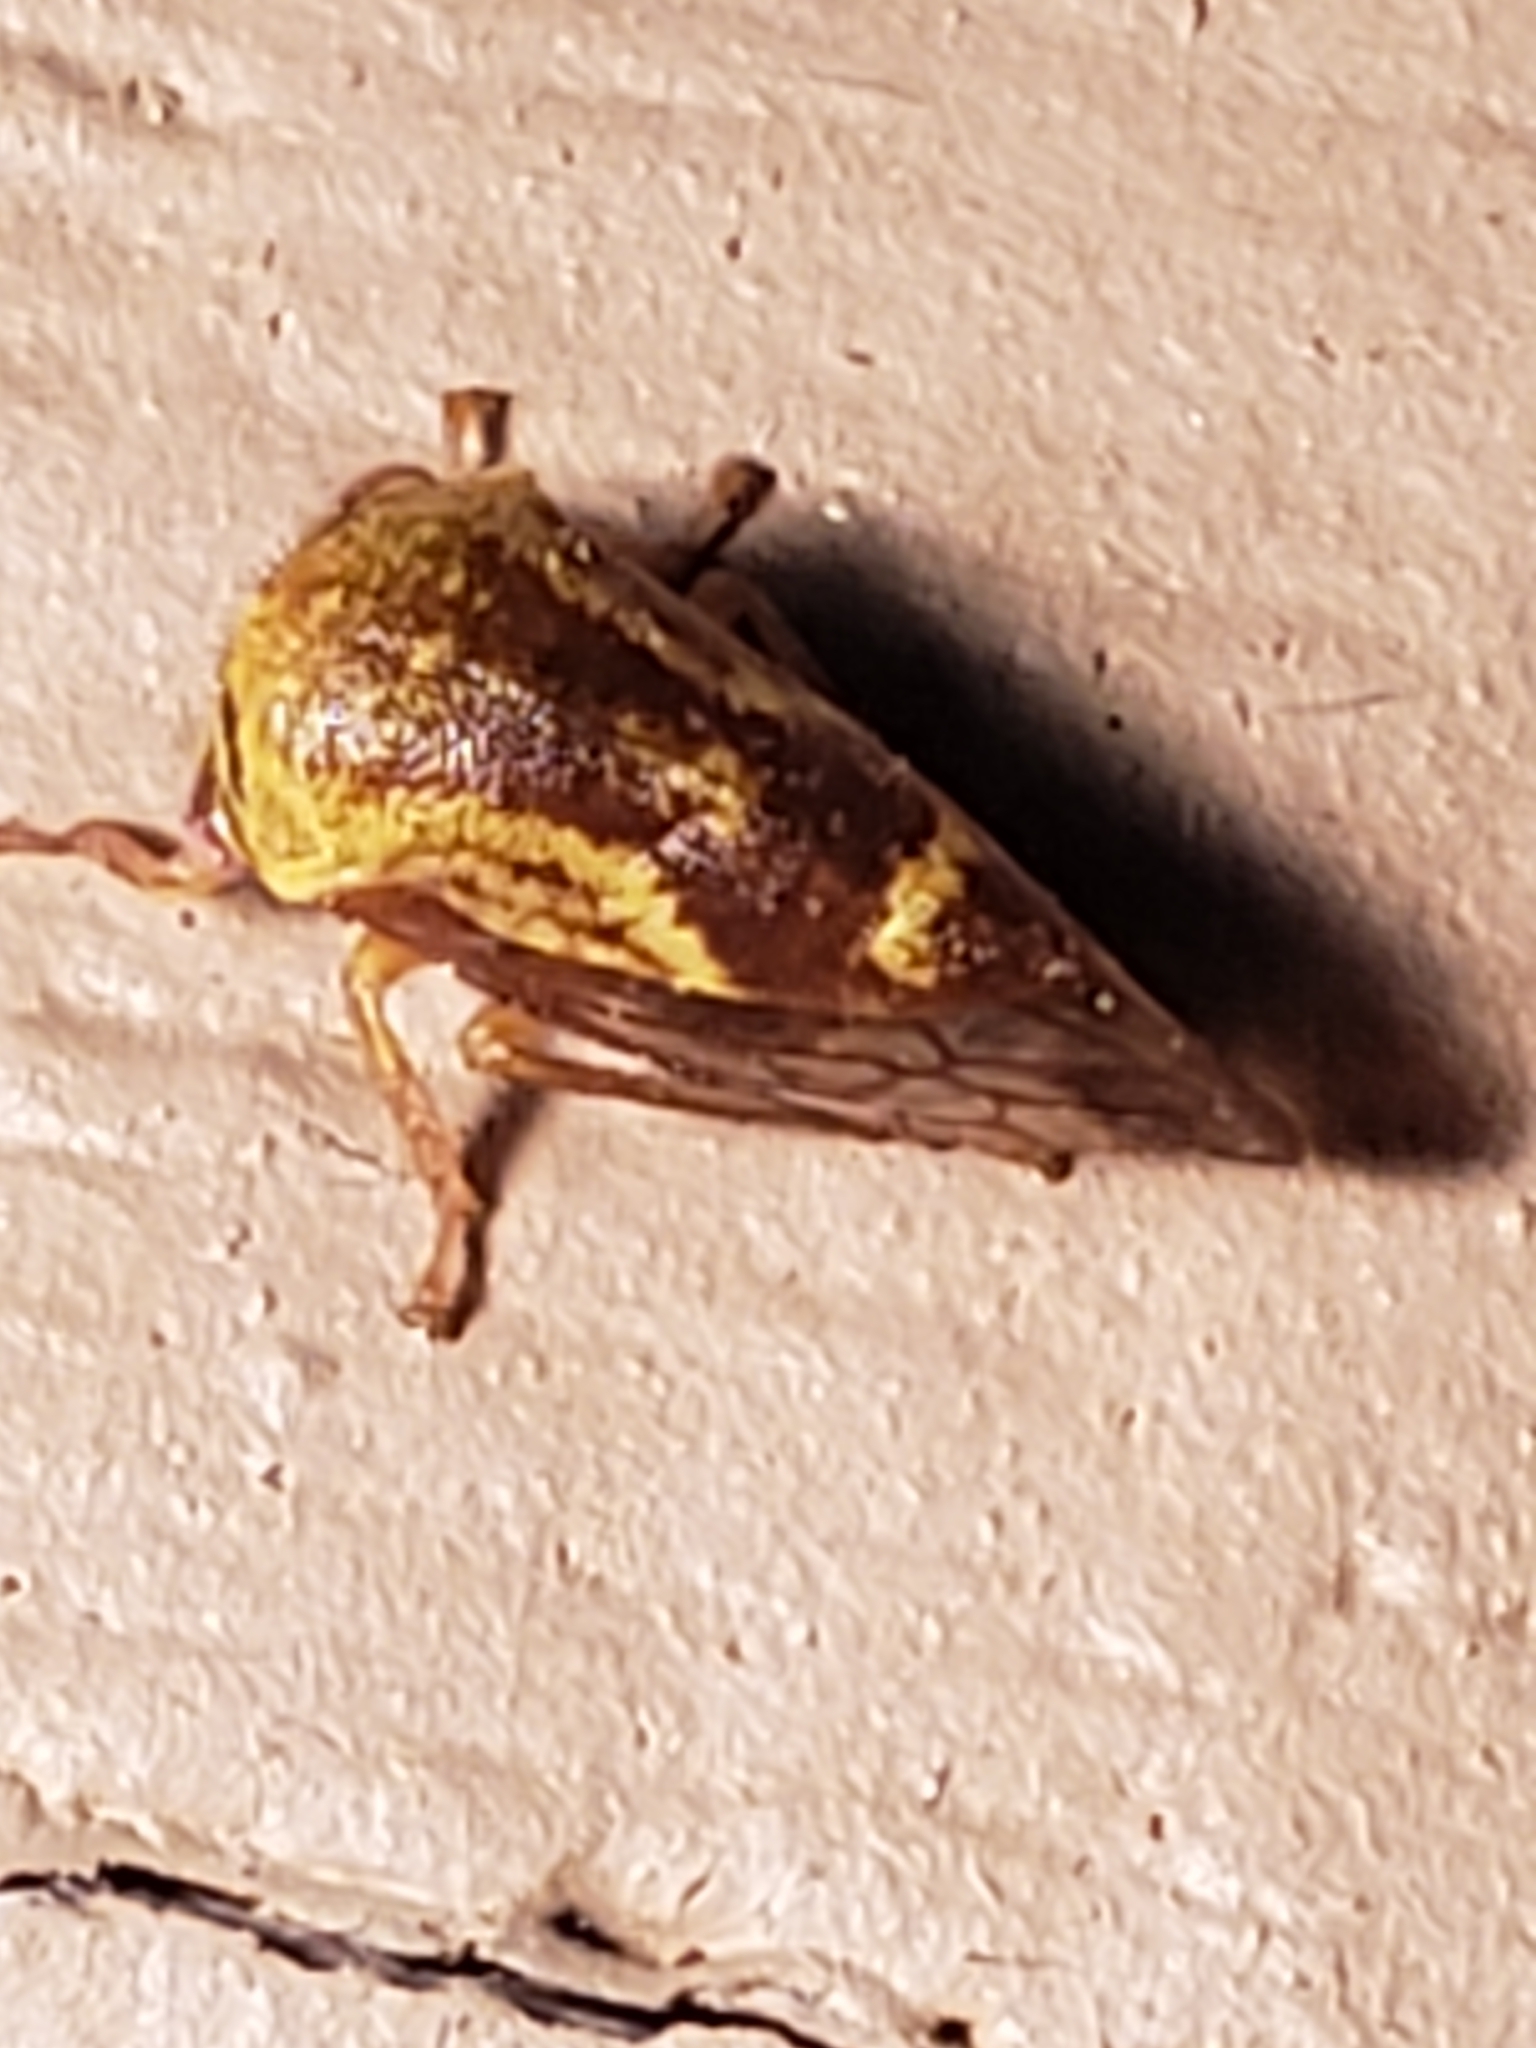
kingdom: Animalia
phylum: Arthropoda
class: Insecta
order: Hemiptera
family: Membracidae
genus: Ophiderma
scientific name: Ophiderma evelyna
